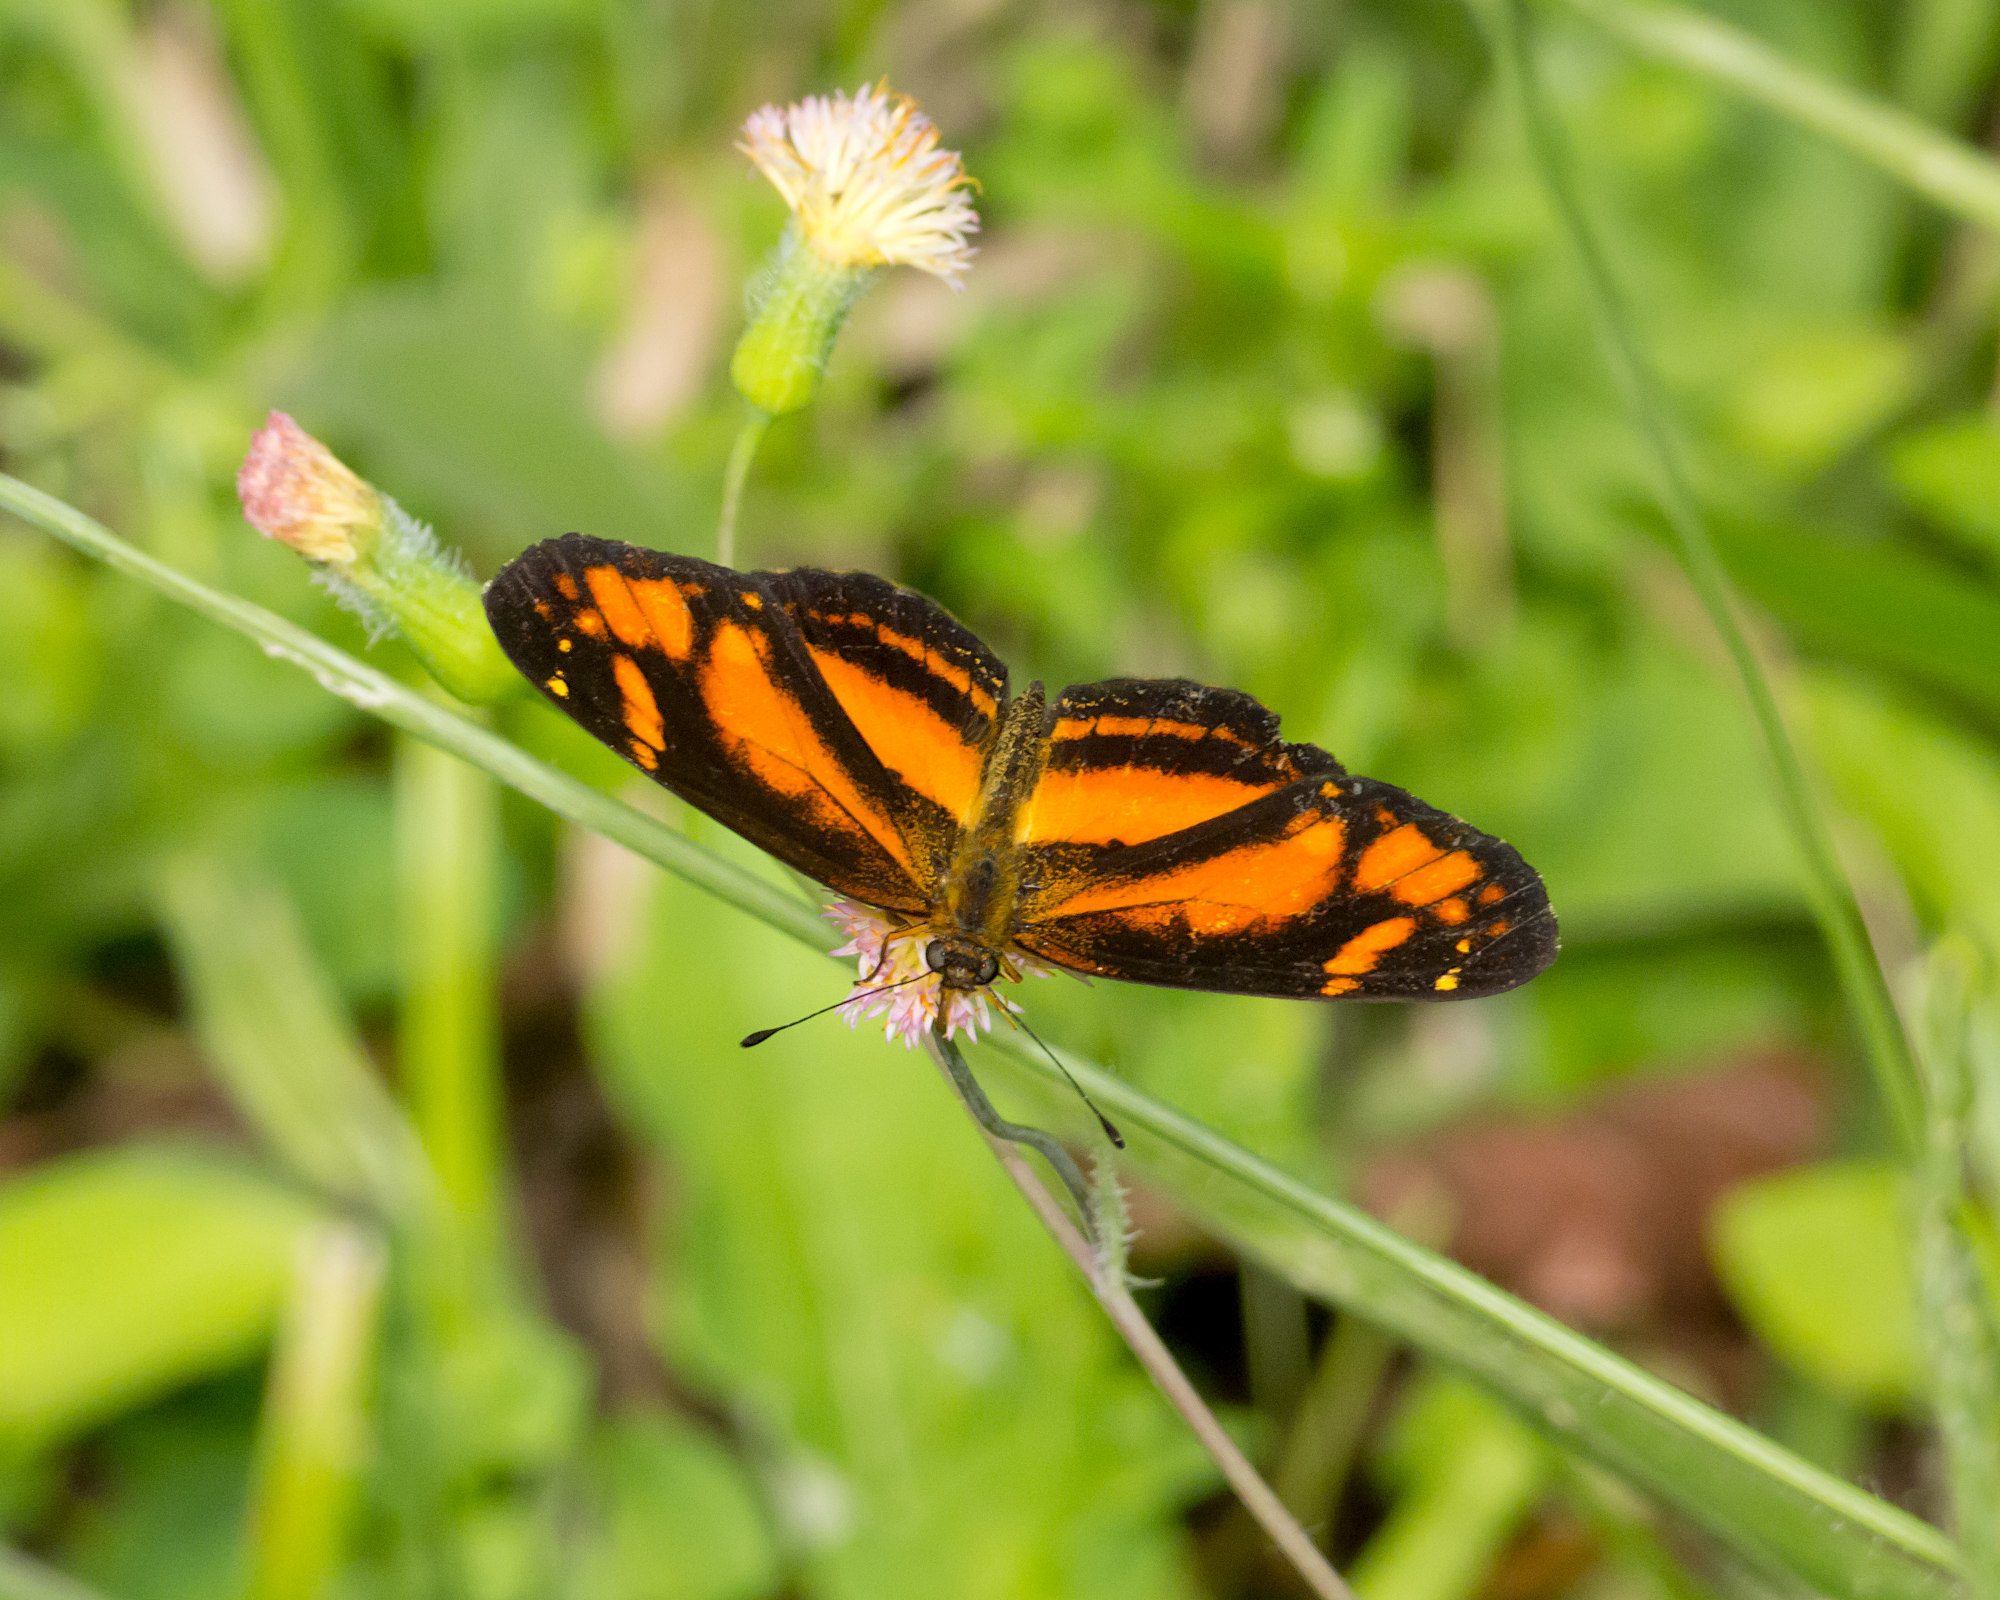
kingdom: Animalia
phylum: Arthropoda
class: Insecta
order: Lepidoptera
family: Nymphalidae
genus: Castilia
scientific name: Castilia eranites
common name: Smudged crescent
